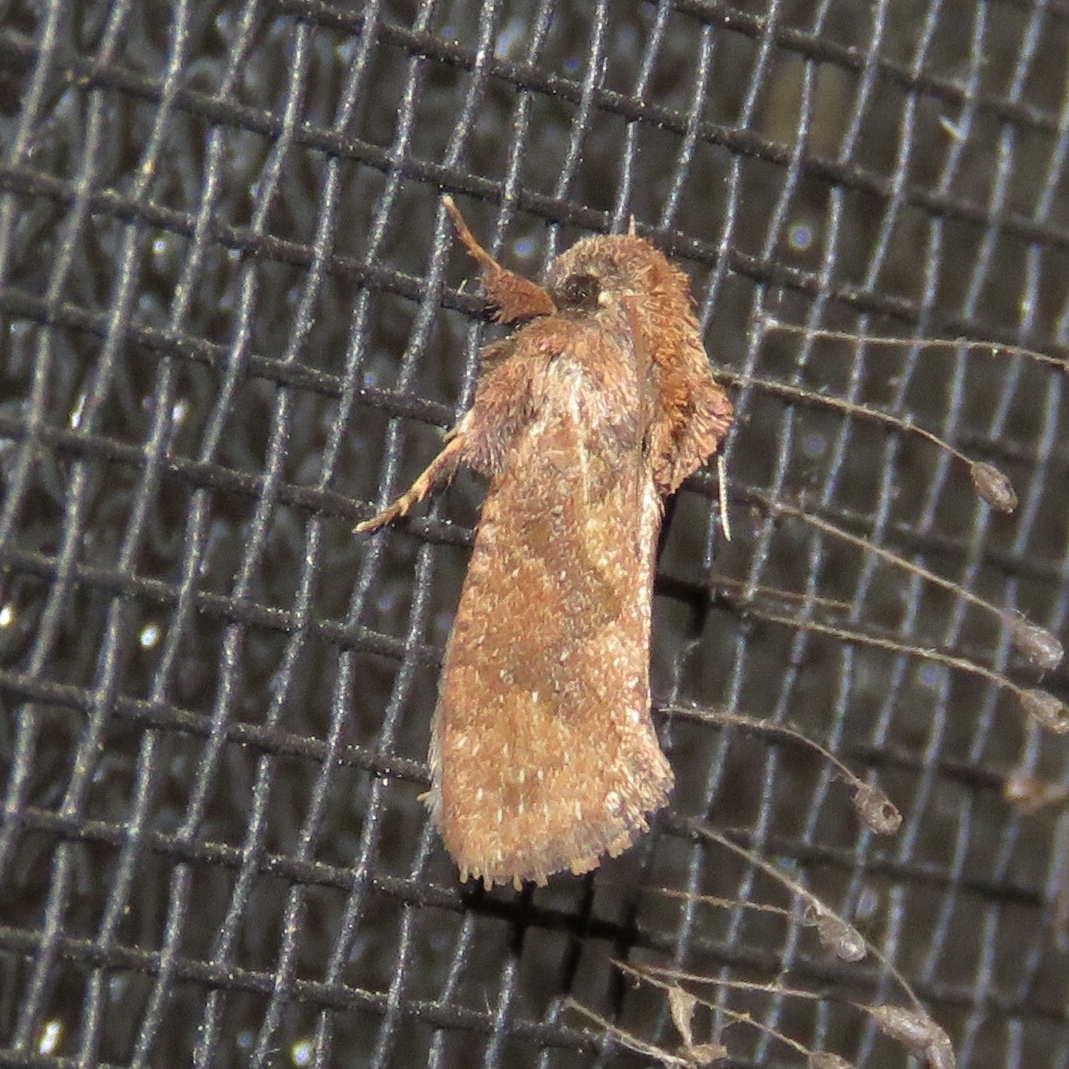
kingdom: Animalia
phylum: Arthropoda
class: Insecta
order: Lepidoptera
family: Tineidae
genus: Acrolophus
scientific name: Acrolophus walsinghami
